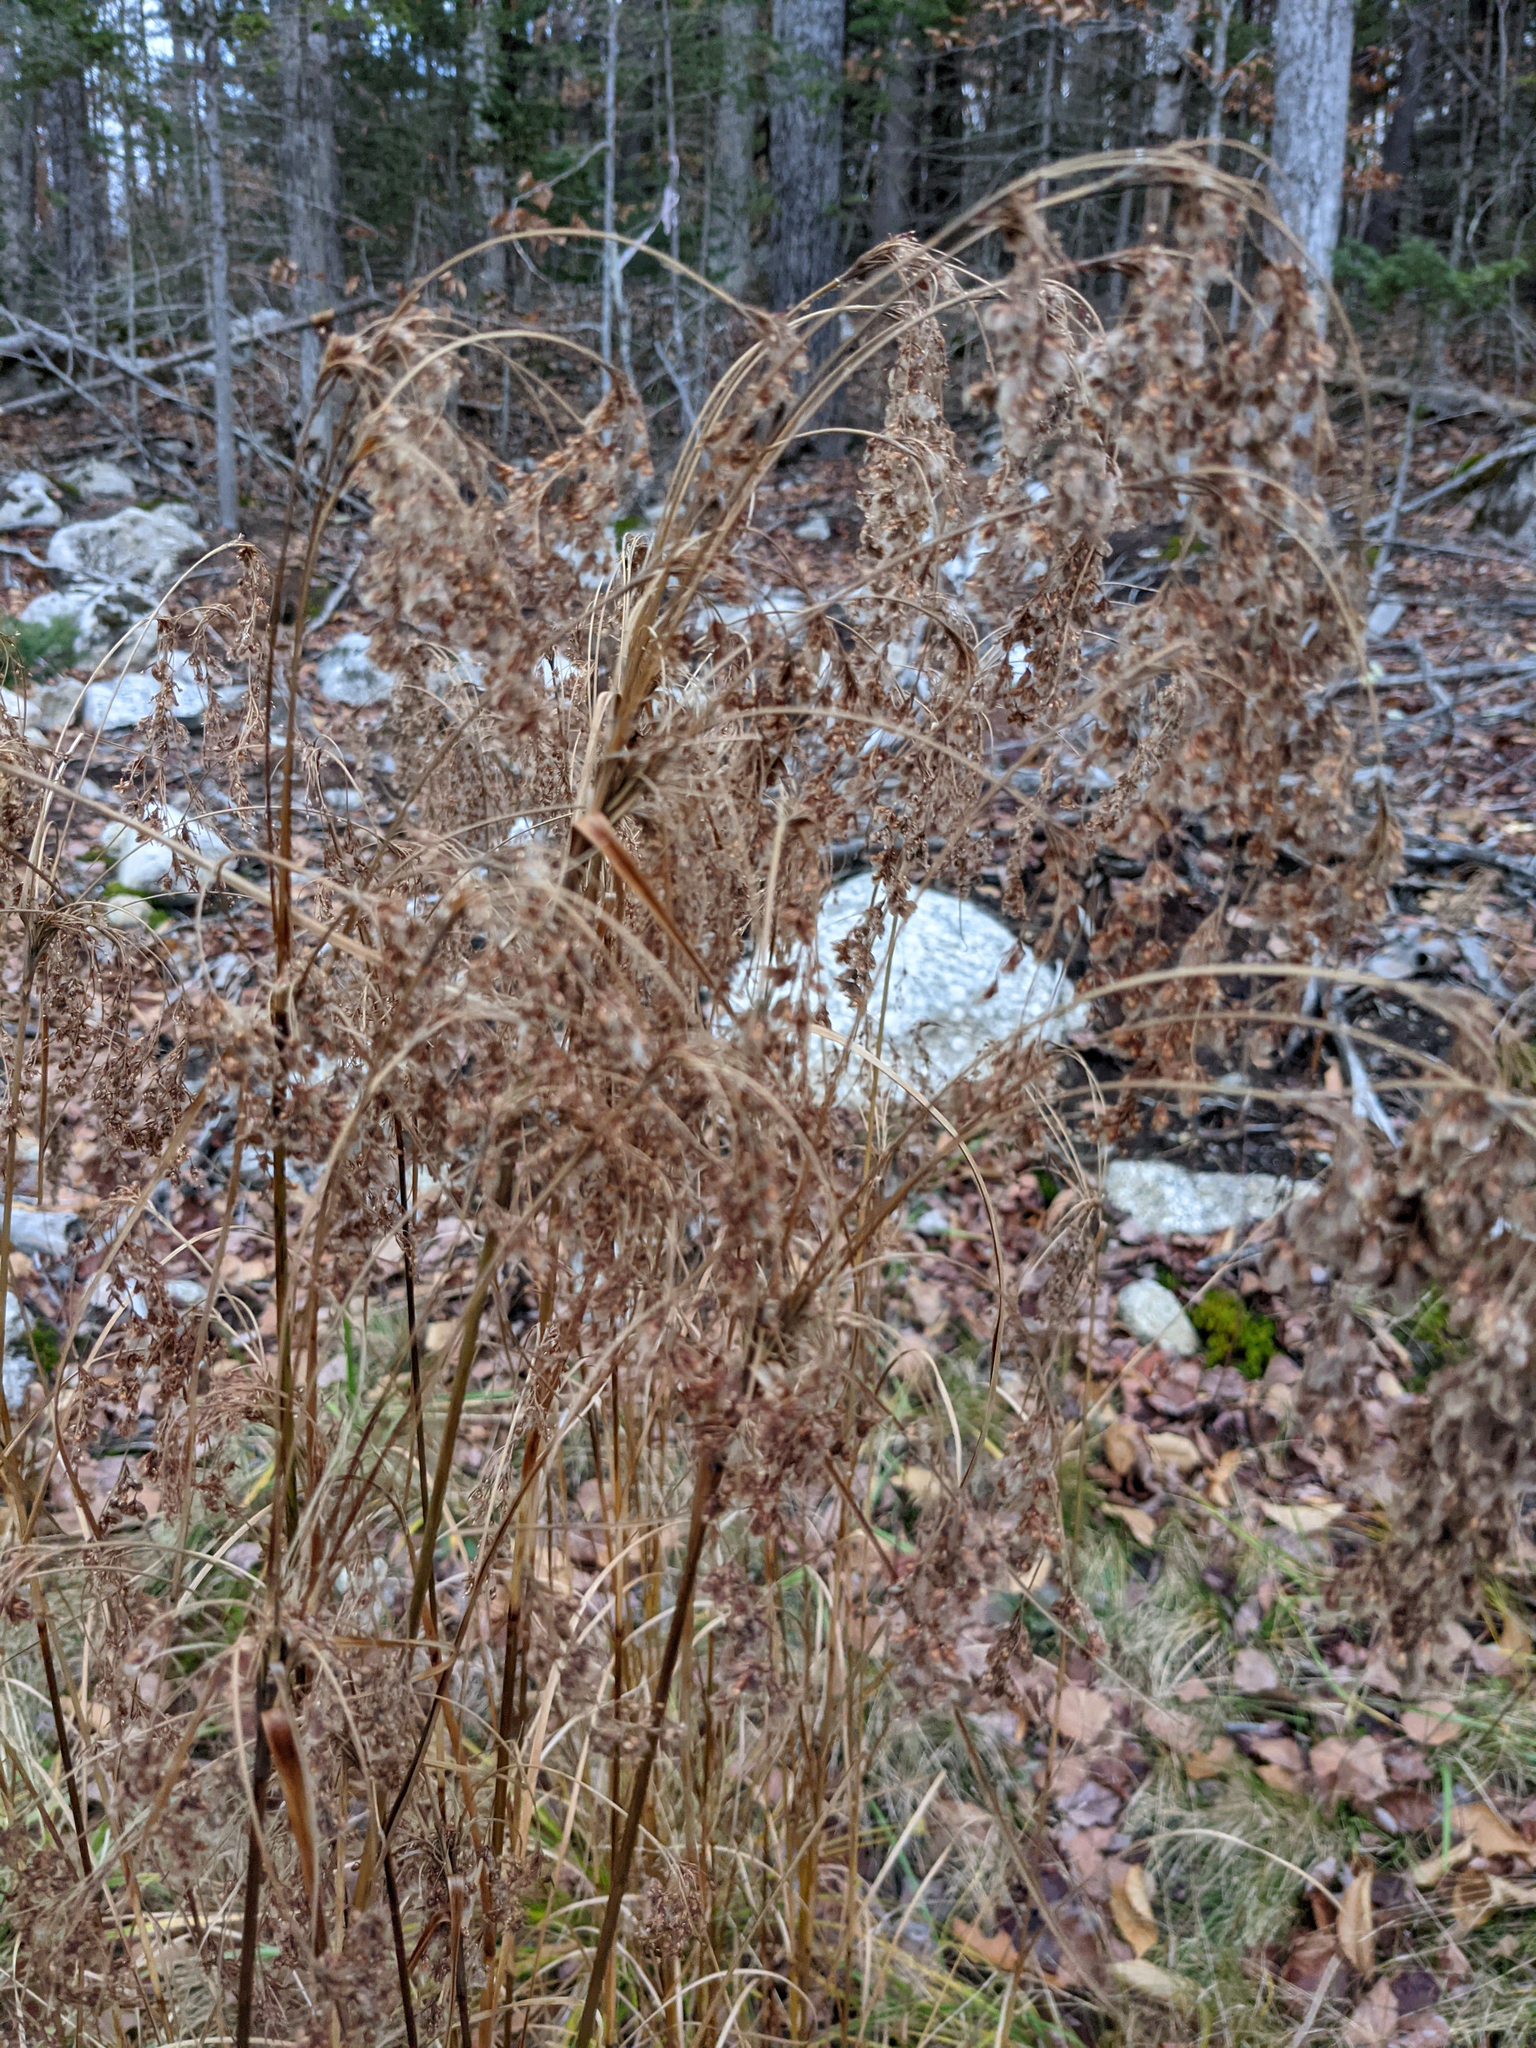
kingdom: Plantae
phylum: Tracheophyta
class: Liliopsida
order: Poales
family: Cyperaceae
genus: Scirpus
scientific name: Scirpus cyperinus
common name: Black-sheathed bulrush
